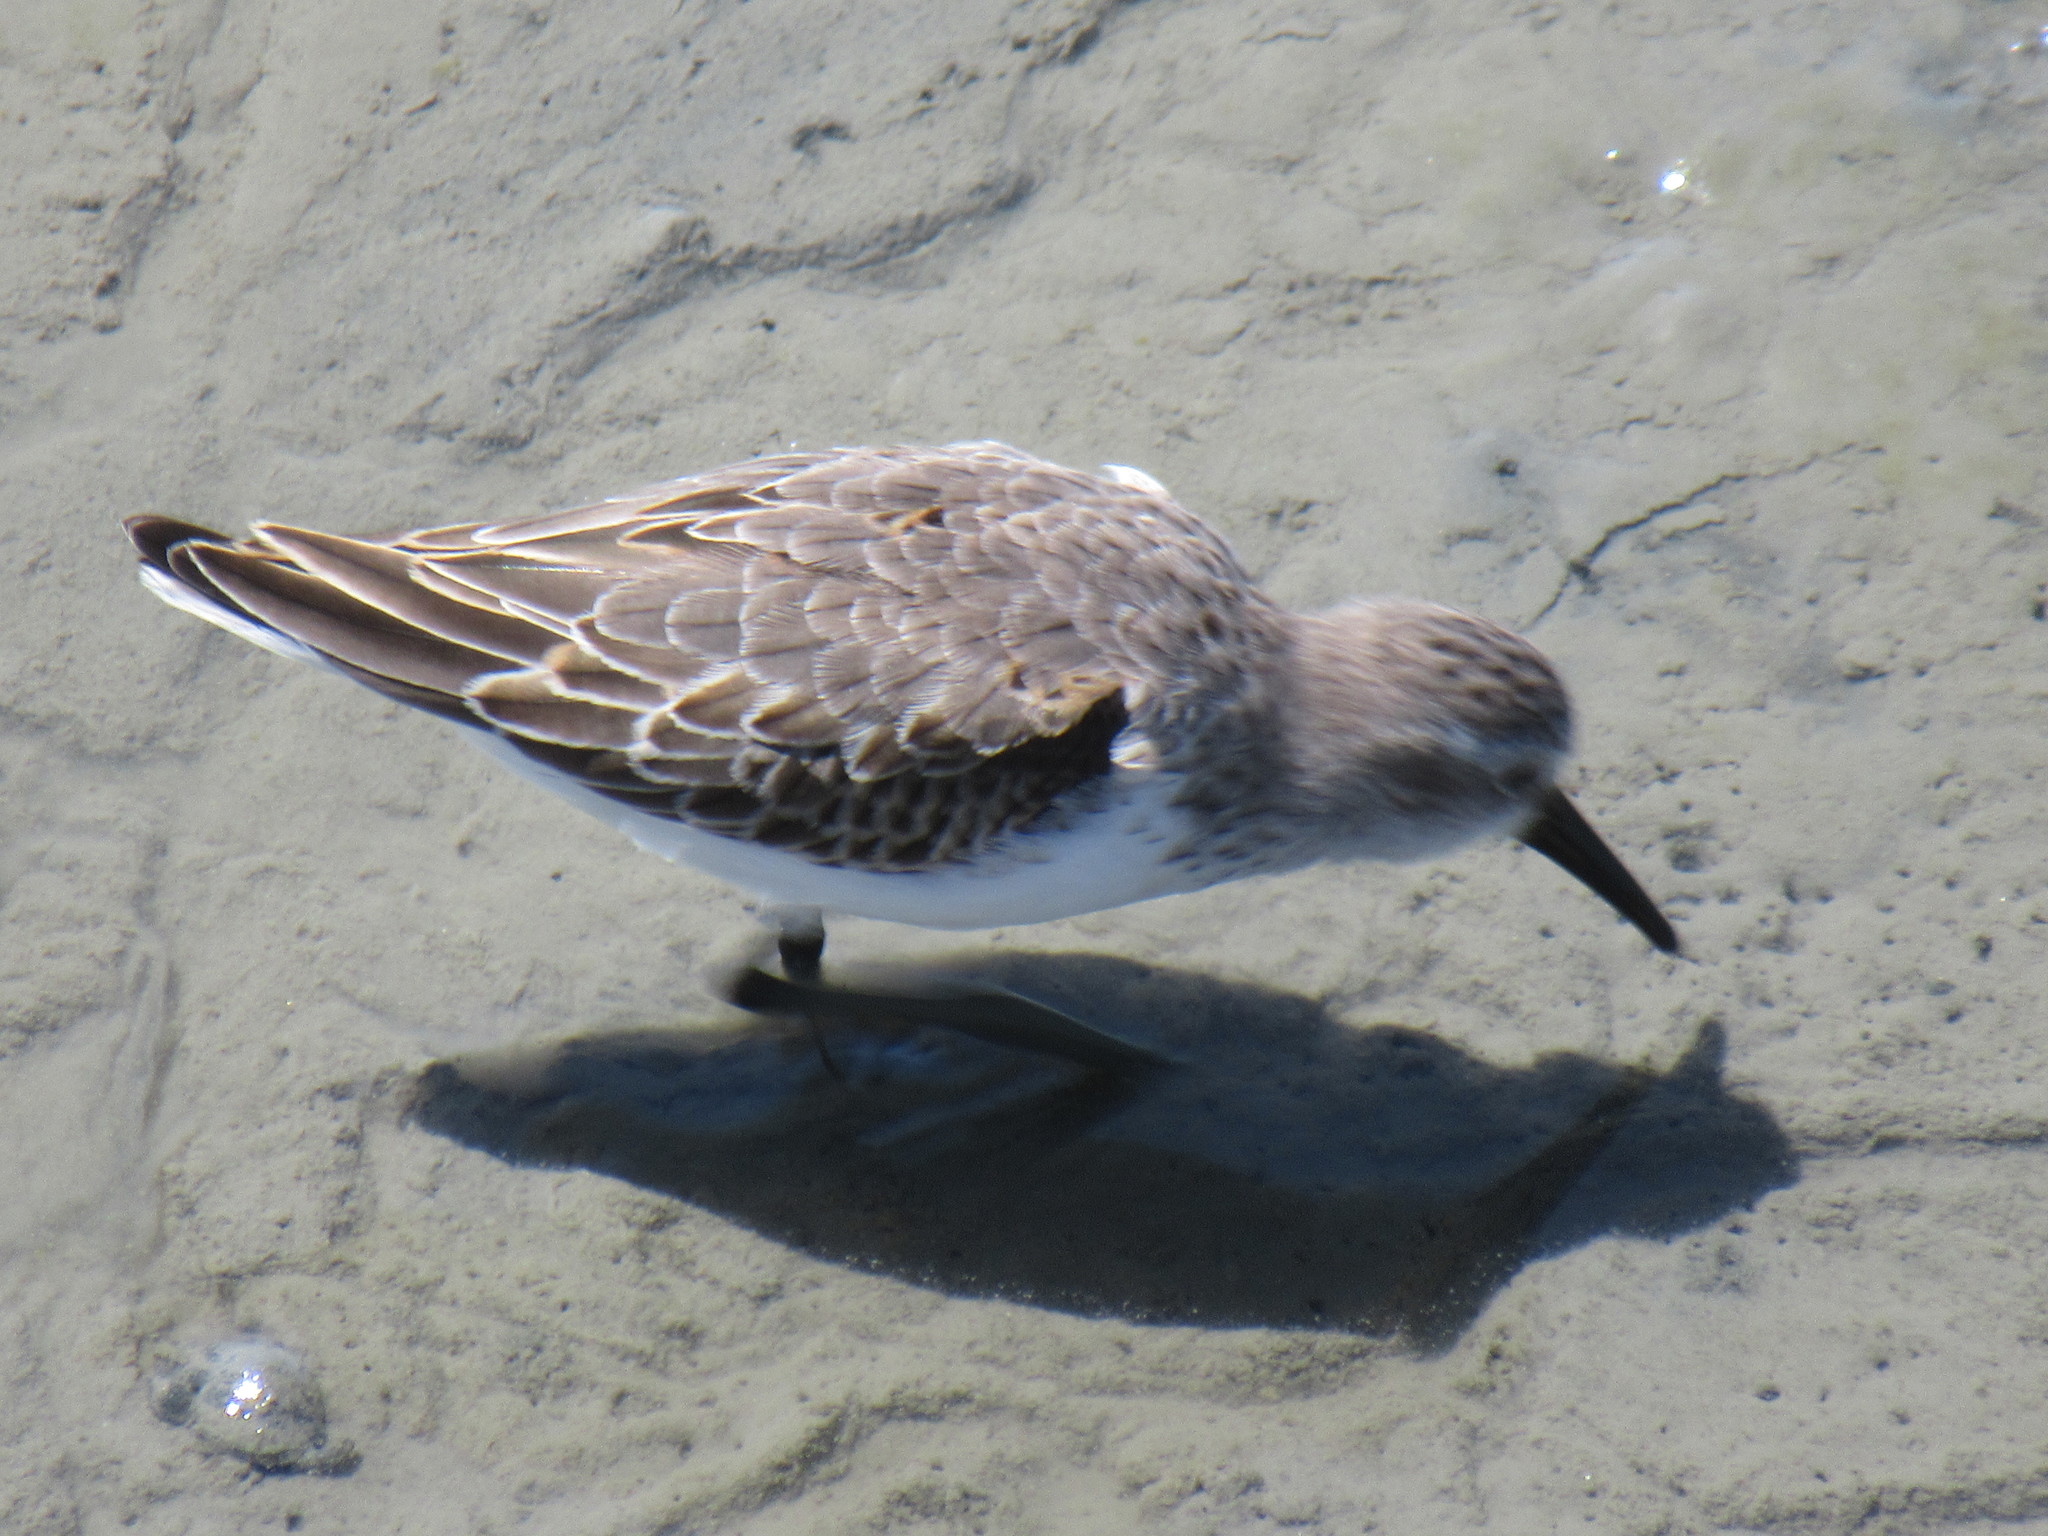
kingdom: Animalia
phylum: Chordata
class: Aves
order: Charadriiformes
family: Scolopacidae
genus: Calidris
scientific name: Calidris mauri
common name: Western sandpiper
